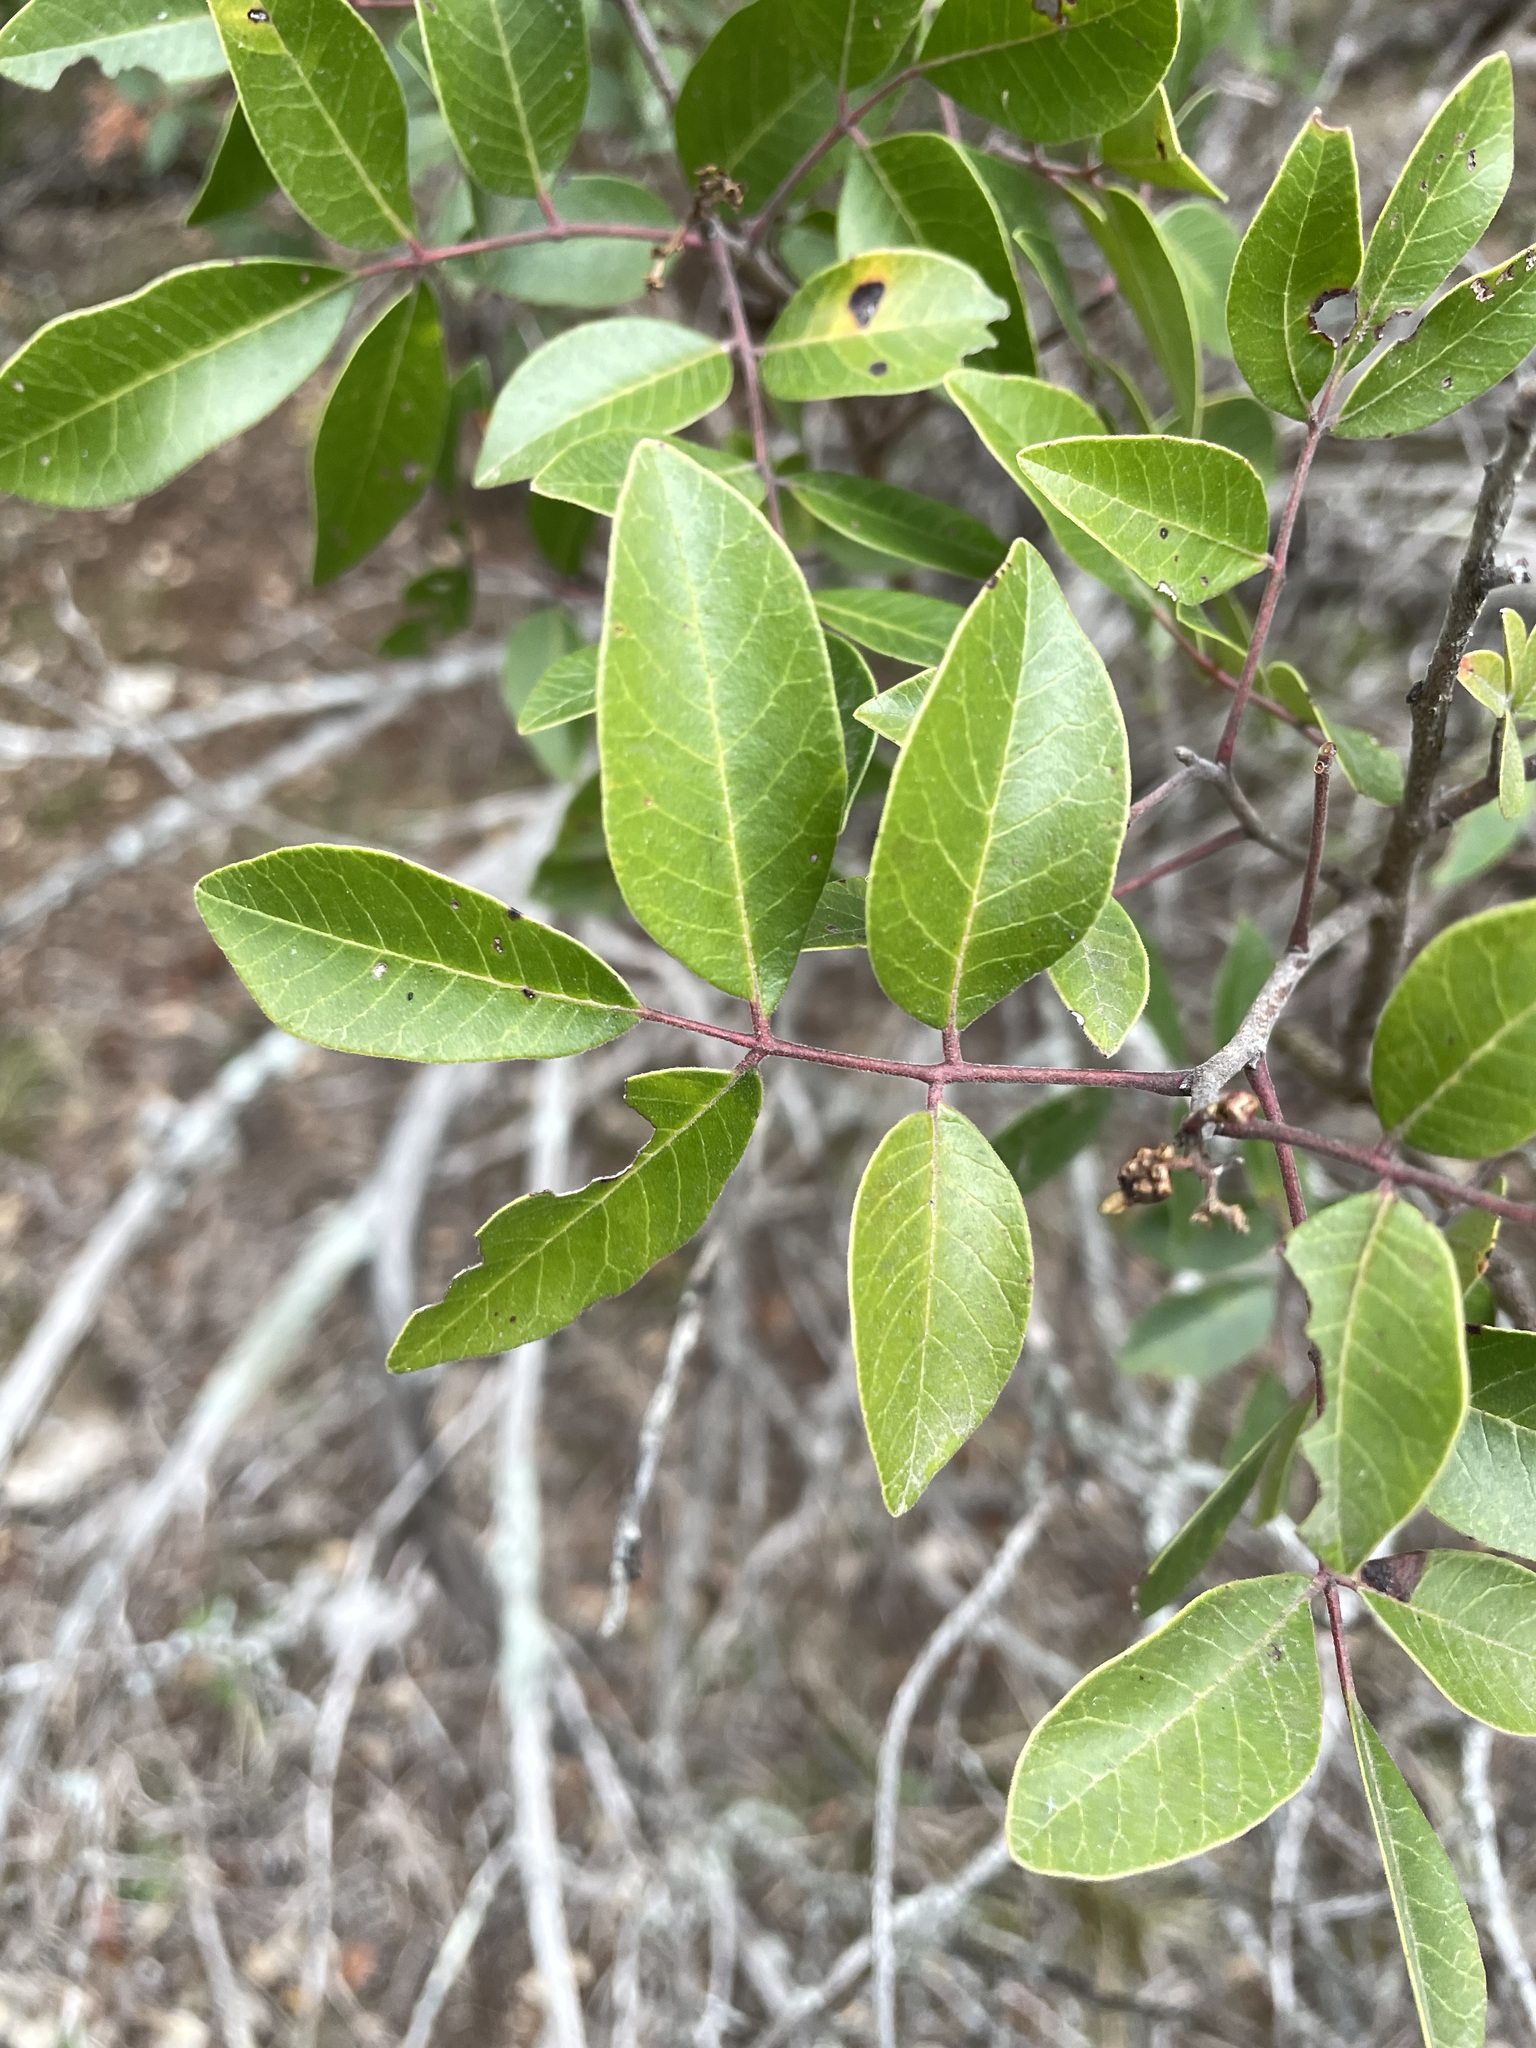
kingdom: Plantae
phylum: Tracheophyta
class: Magnoliopsida
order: Sapindales
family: Anacardiaceae
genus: Rhus
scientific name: Rhus virens
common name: Evergreen sumac
